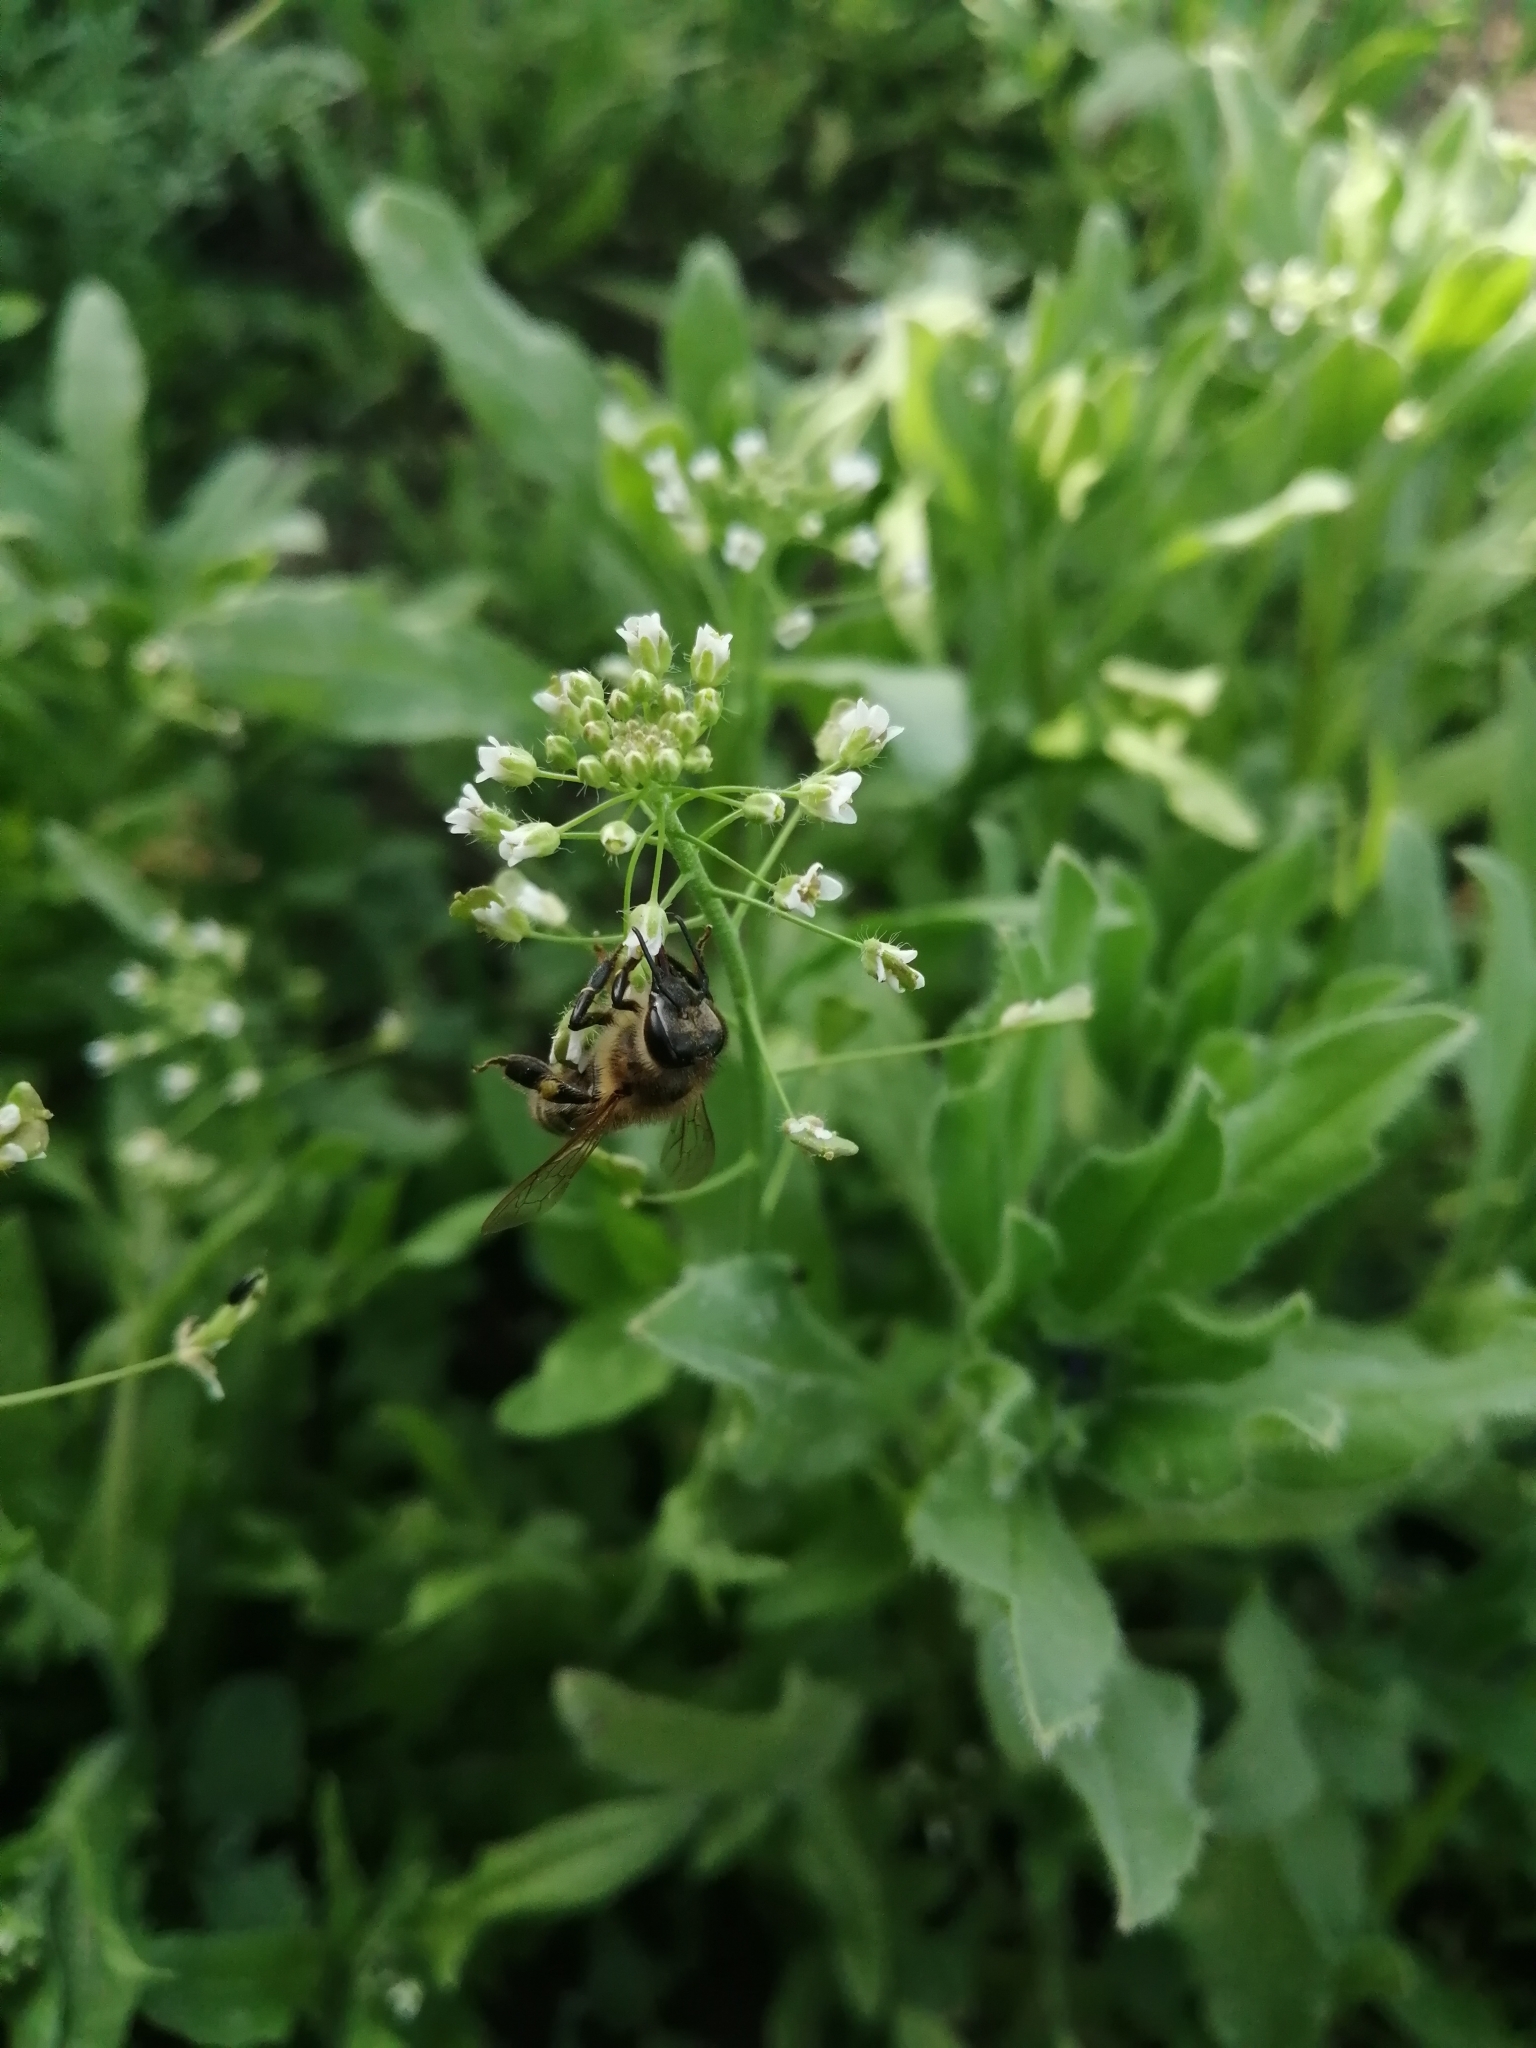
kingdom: Animalia
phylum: Arthropoda
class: Insecta
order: Hymenoptera
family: Apidae
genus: Apis
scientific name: Apis mellifera
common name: Honey bee
